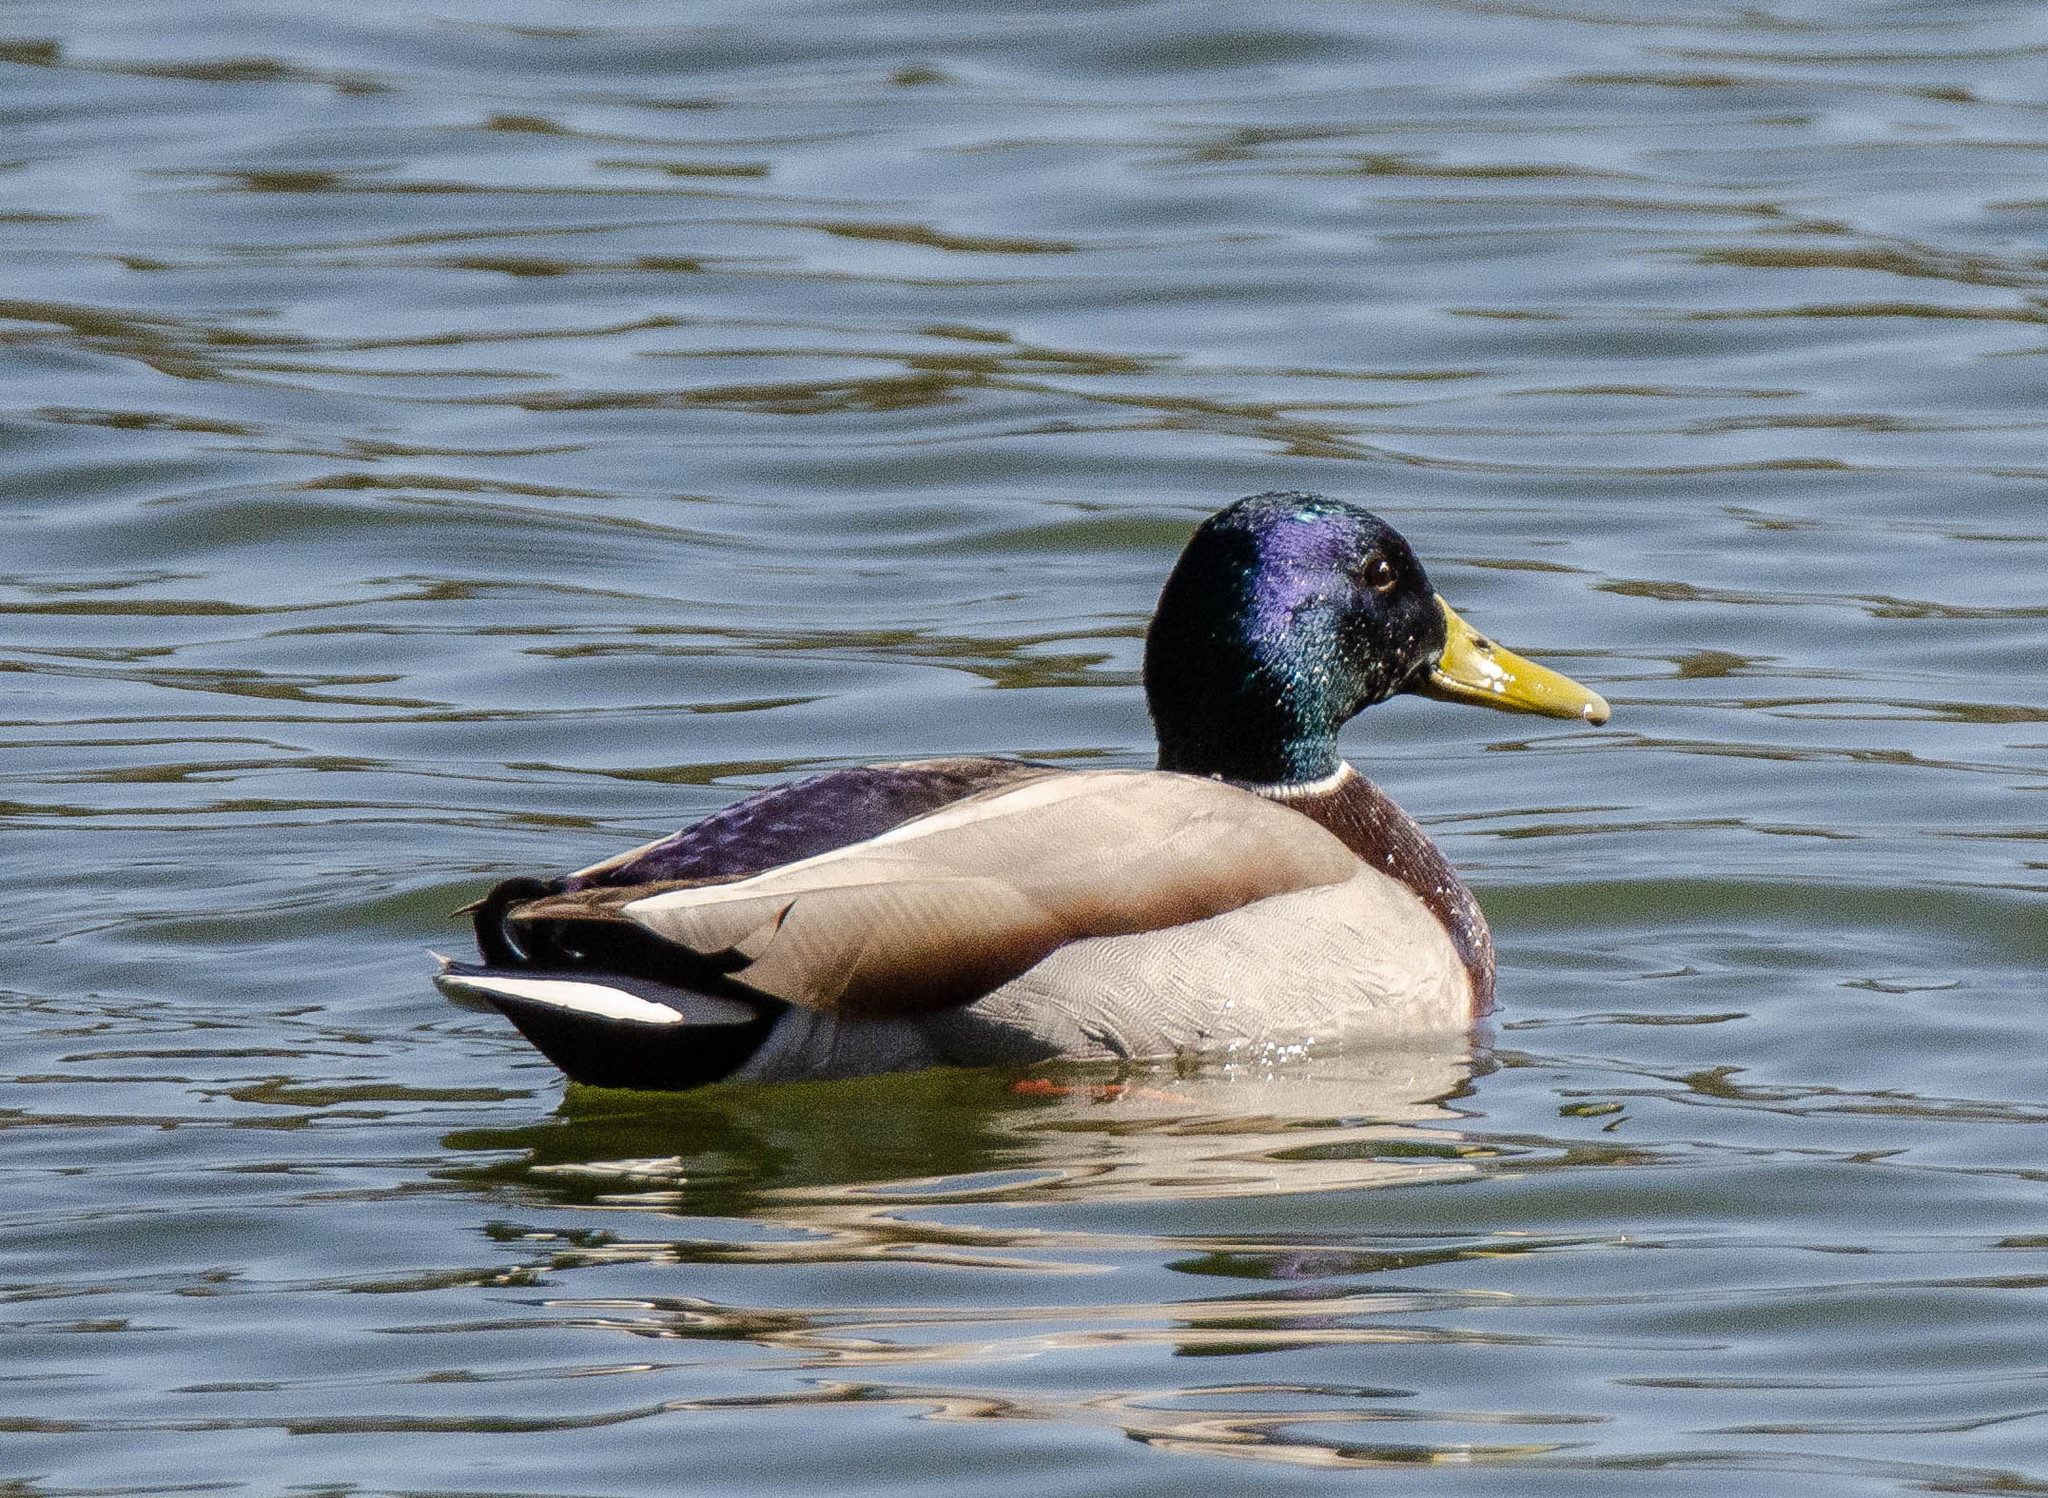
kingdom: Animalia
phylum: Chordata
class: Aves
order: Anseriformes
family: Anatidae
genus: Anas
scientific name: Anas platyrhynchos
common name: Mallard
